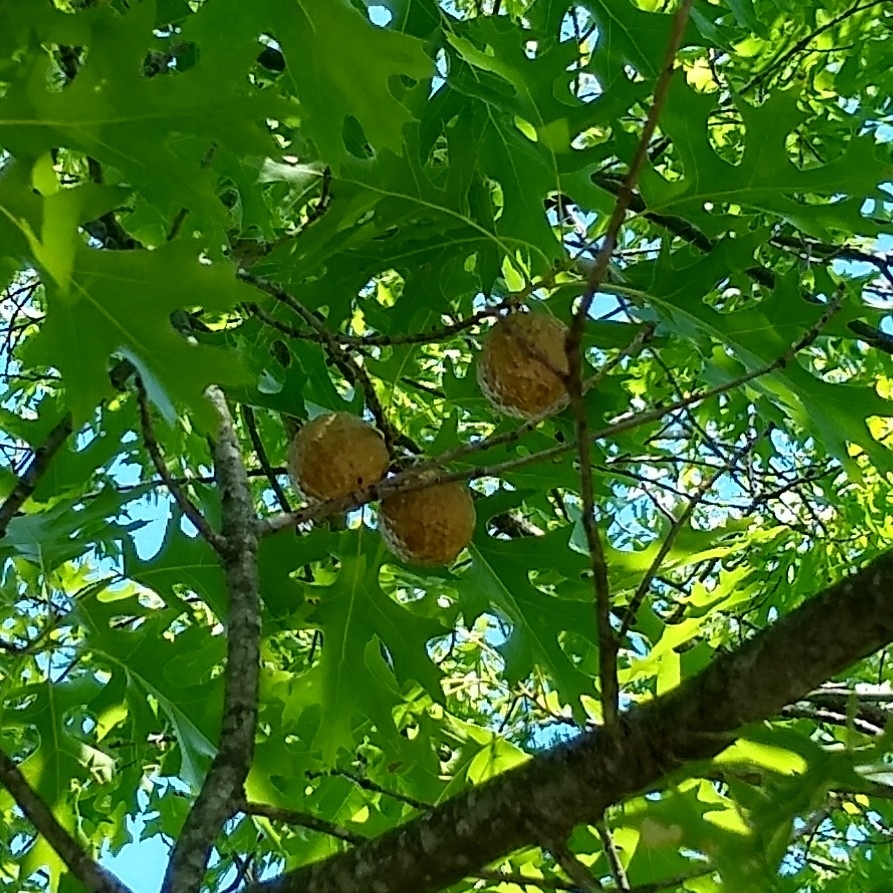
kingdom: Animalia
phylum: Arthropoda
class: Insecta
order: Hymenoptera
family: Cynipidae
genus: Amphibolips
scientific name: Amphibolips
